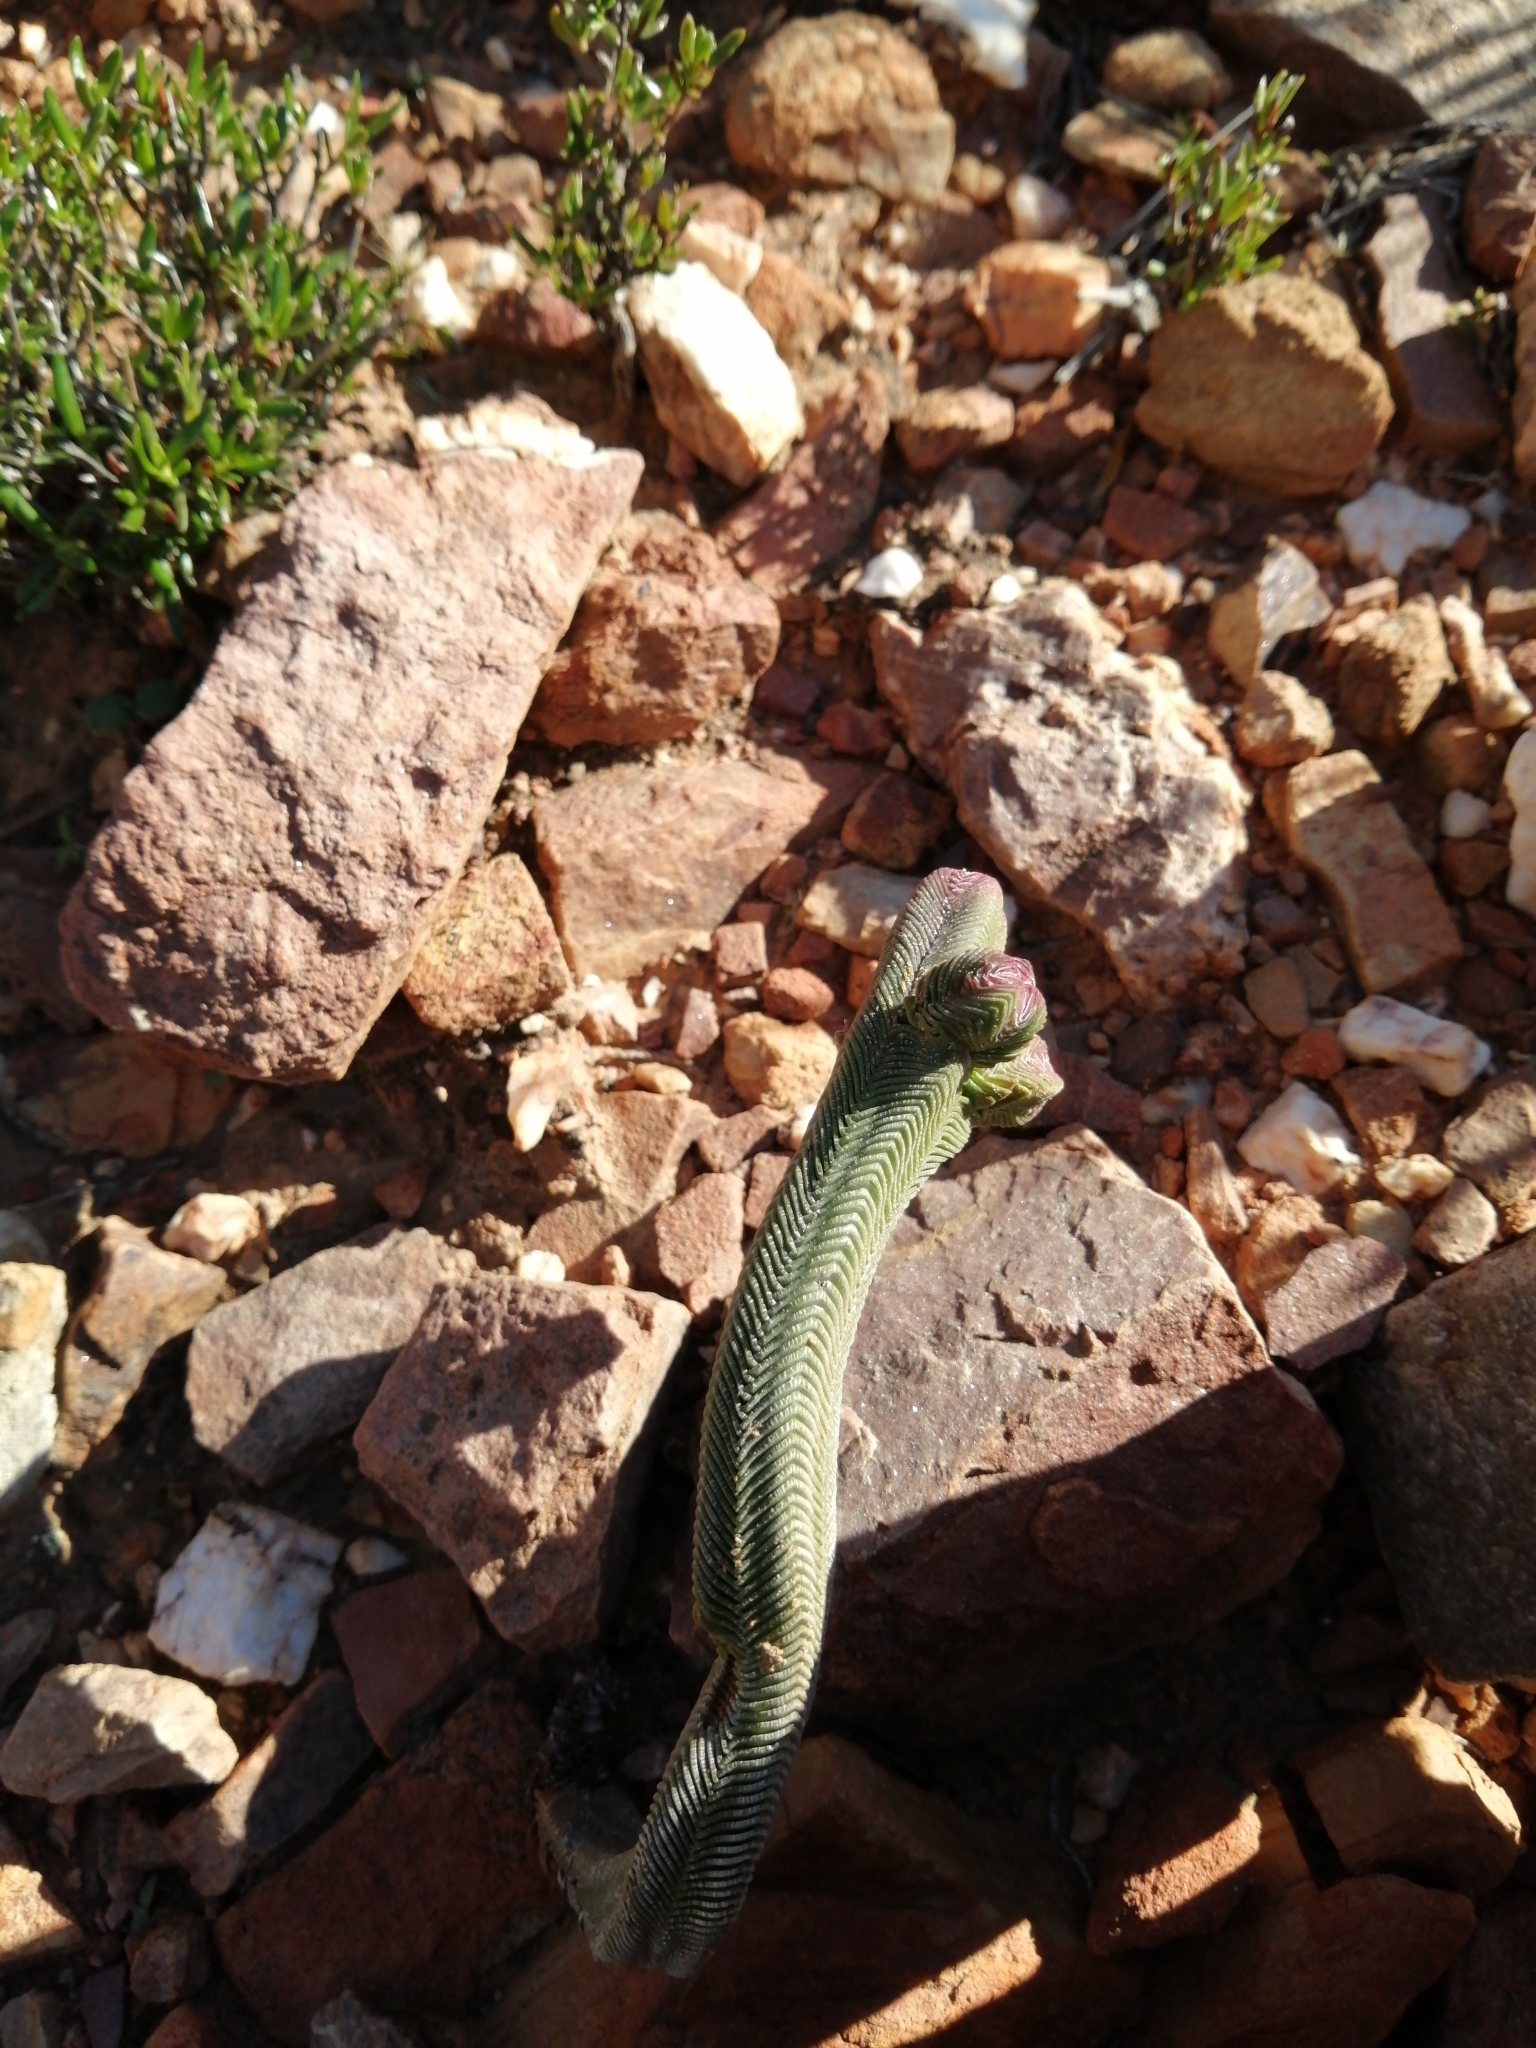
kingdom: Plantae
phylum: Tracheophyta
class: Magnoliopsida
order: Saxifragales
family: Crassulaceae
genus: Crassula
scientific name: Crassula pyramidalis
